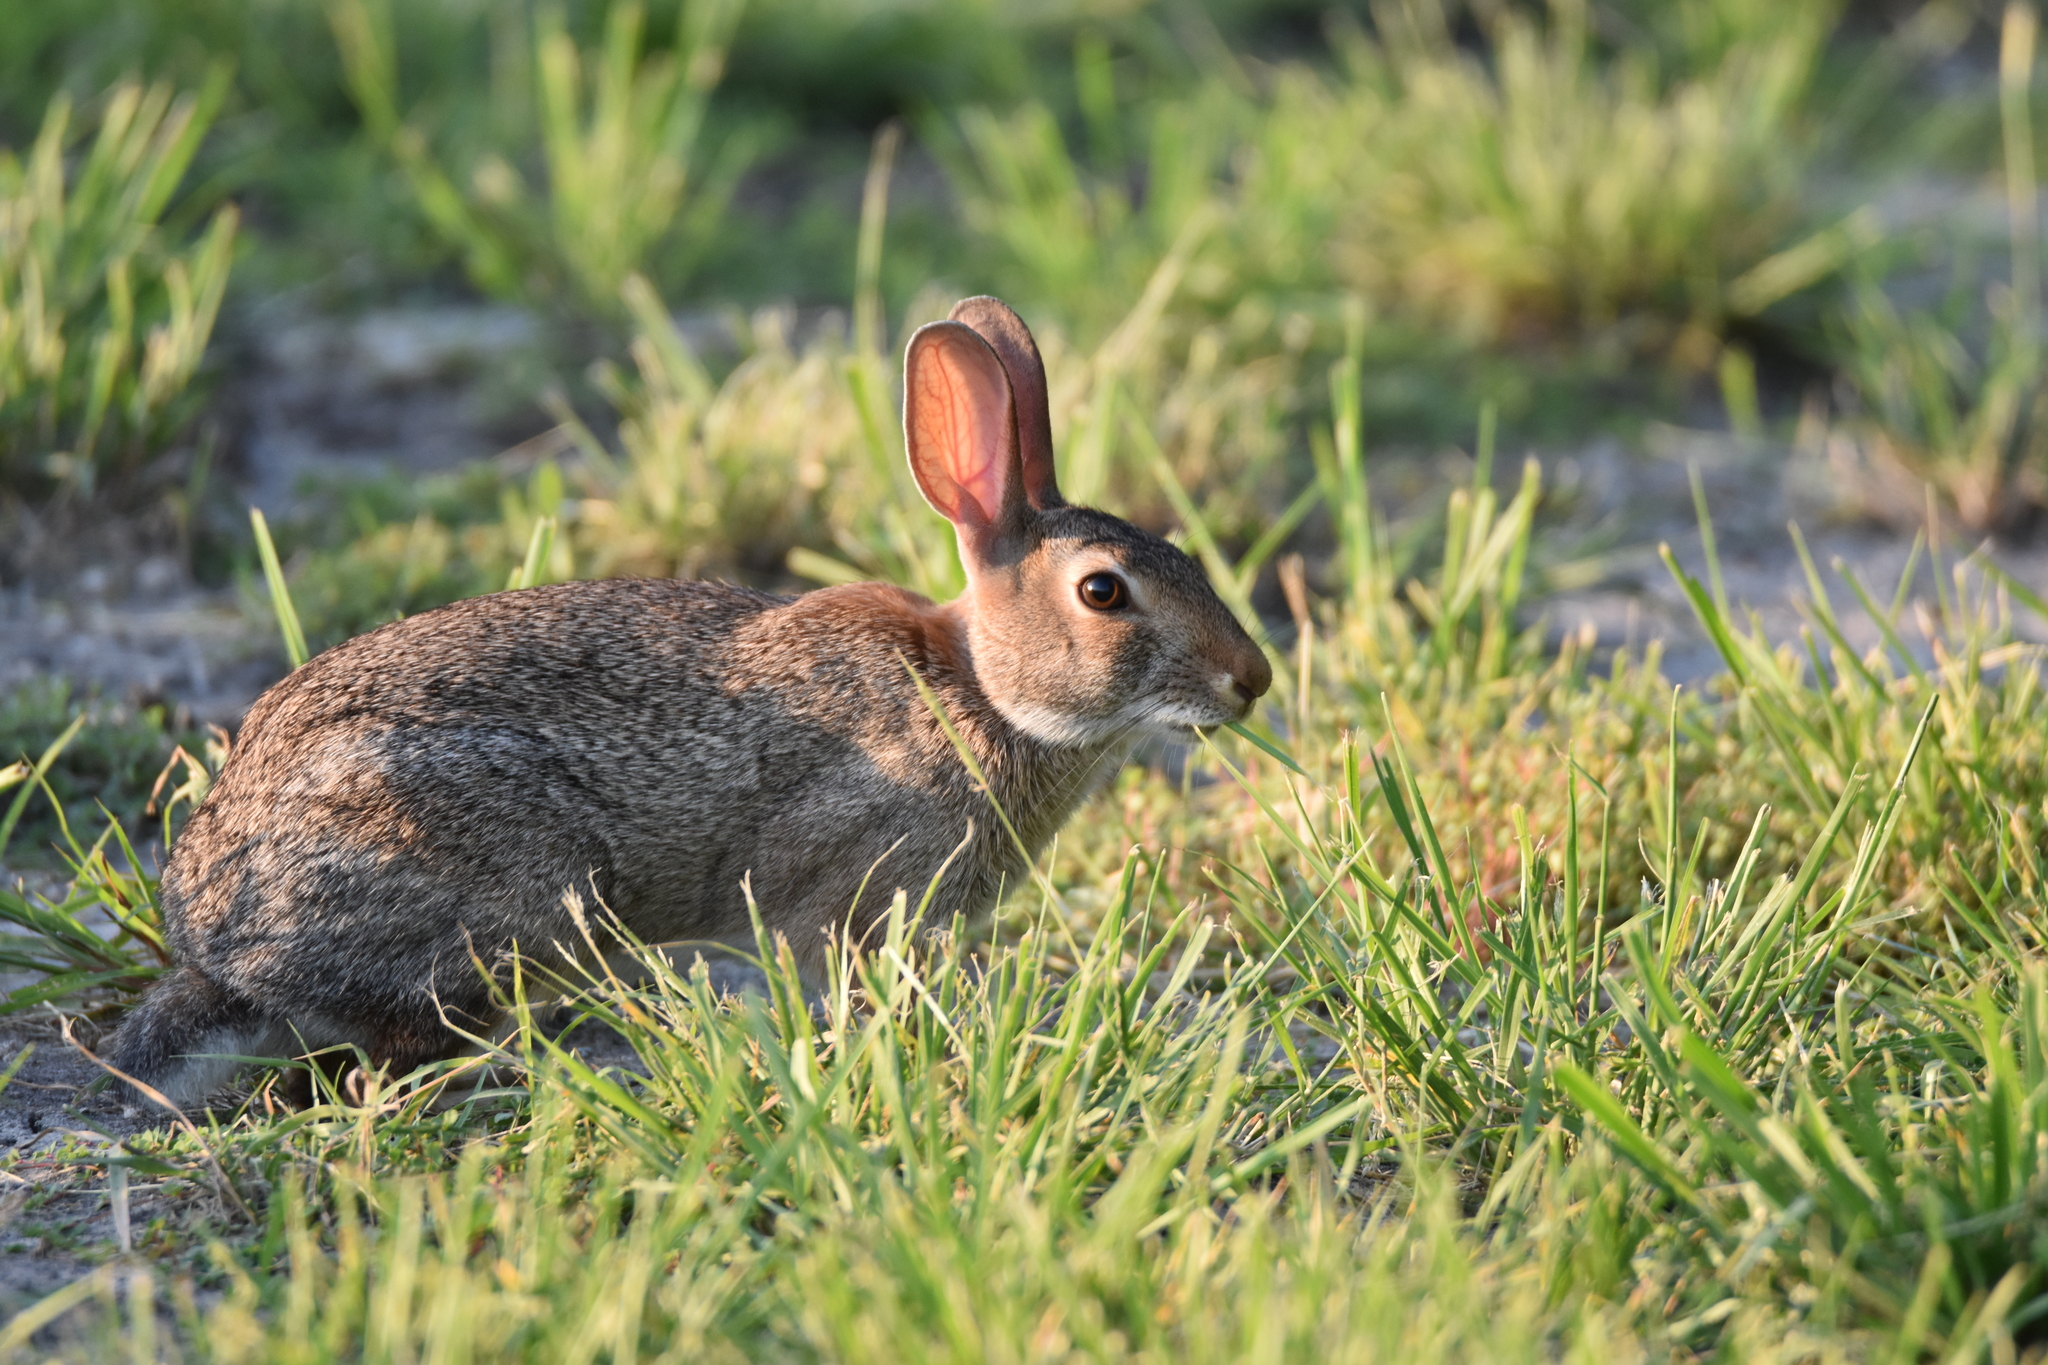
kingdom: Animalia
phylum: Chordata
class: Mammalia
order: Lagomorpha
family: Leporidae
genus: Sylvilagus
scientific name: Sylvilagus floridanus
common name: Eastern cottontail
